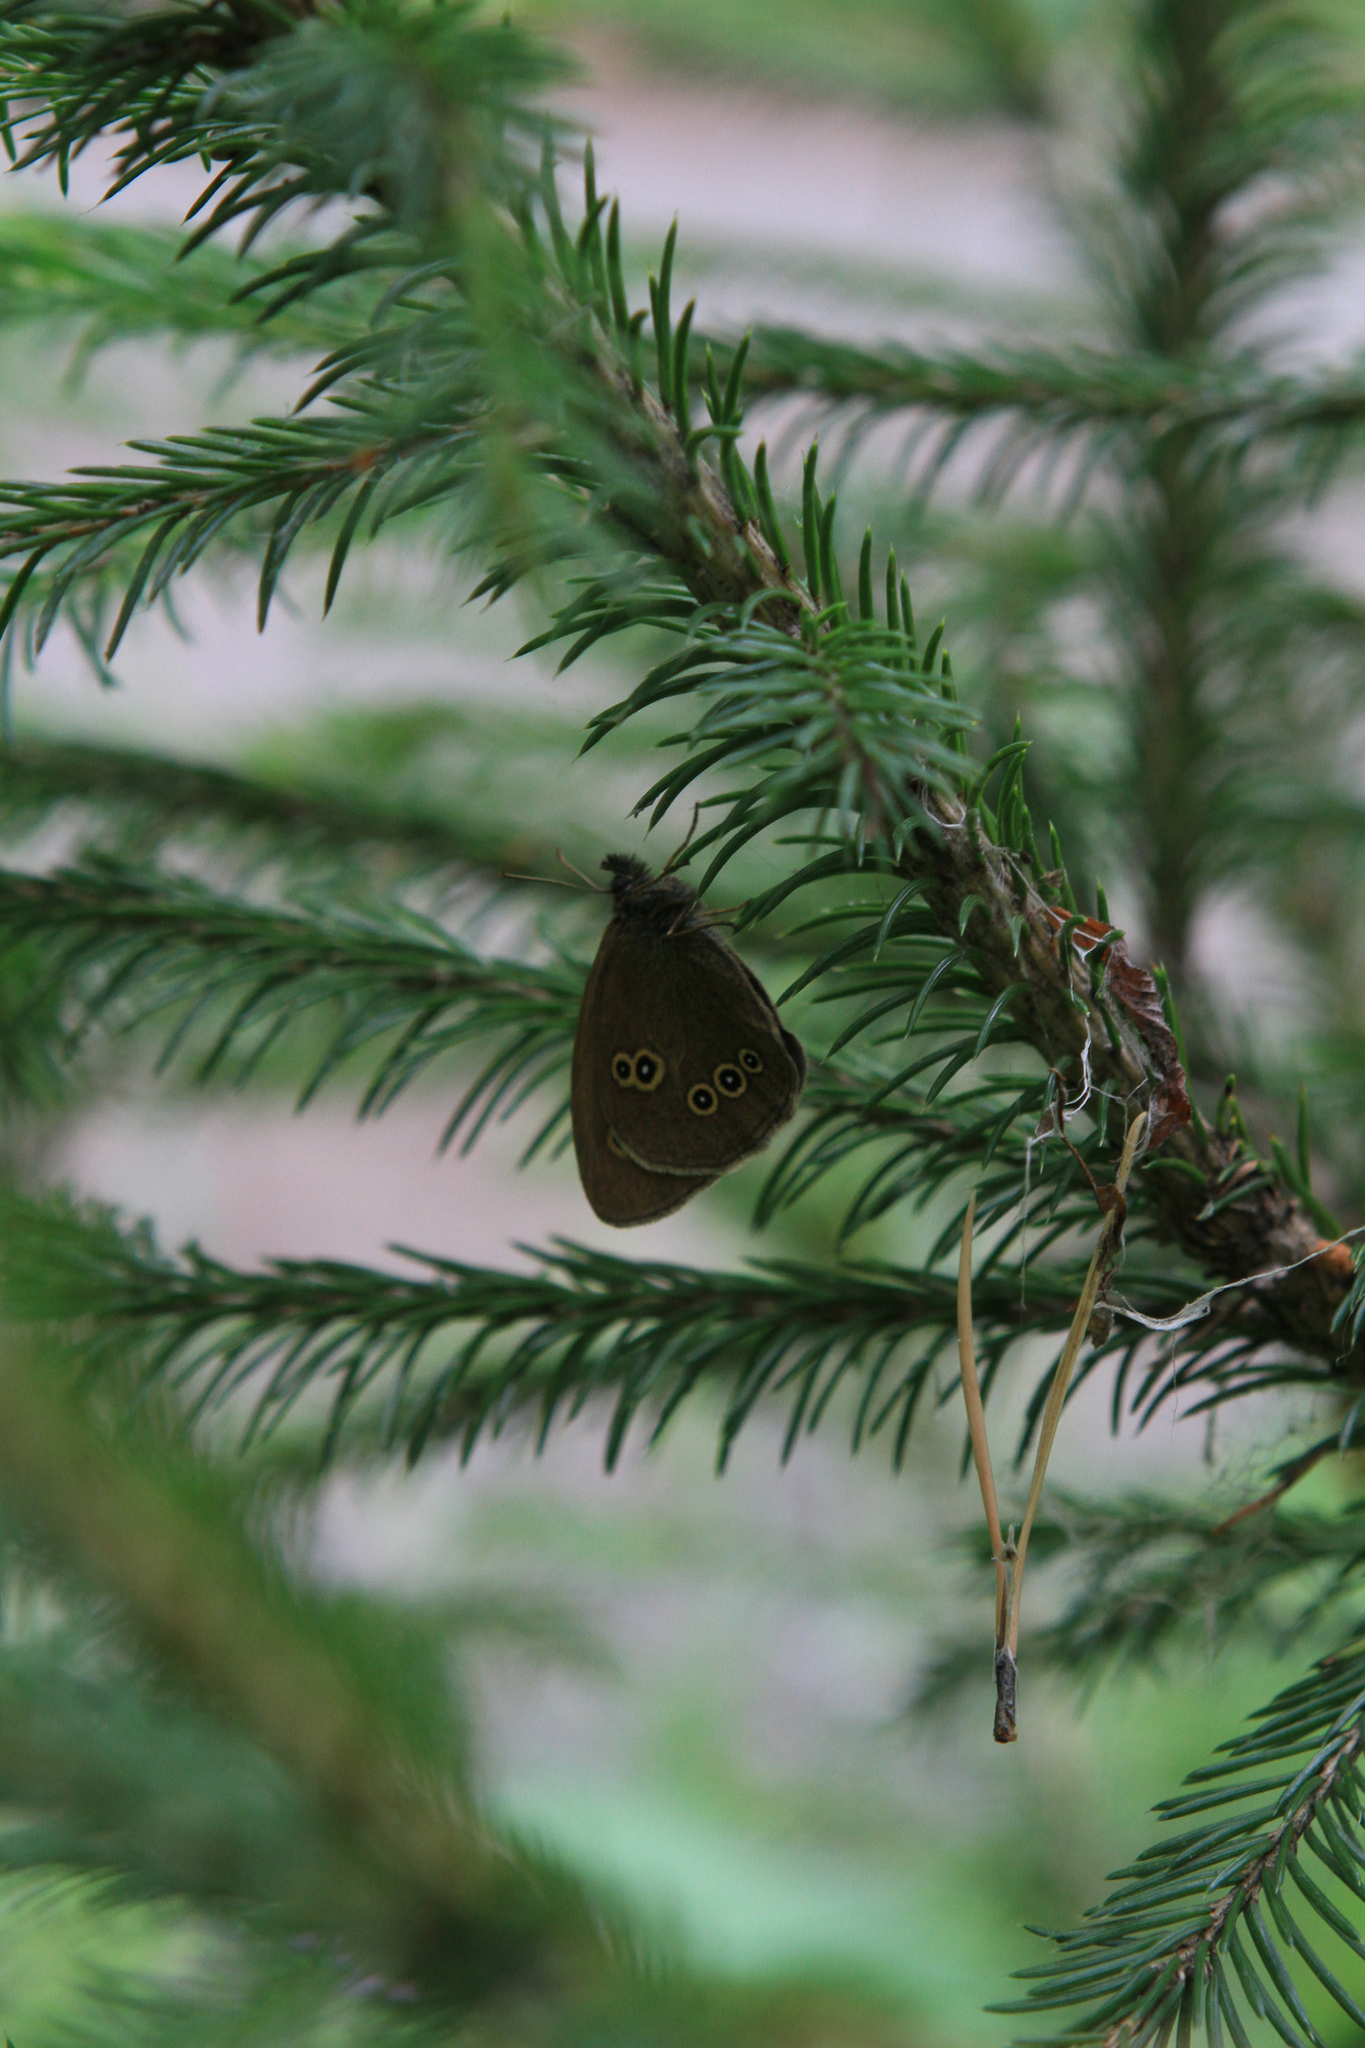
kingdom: Plantae
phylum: Tracheophyta
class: Pinopsida
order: Pinales
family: Pinaceae
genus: Picea
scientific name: Picea obovata
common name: Siberian spruce
